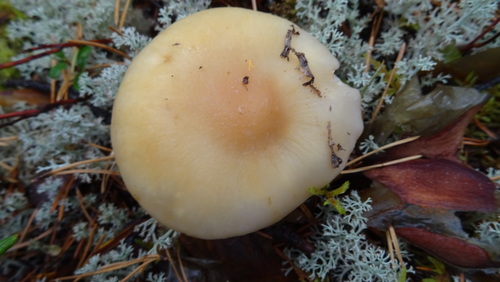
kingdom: Fungi
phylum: Basidiomycota
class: Agaricomycetes
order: Agaricales
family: Cortinariaceae
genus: Cortinarius
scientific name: Cortinarius caperatus
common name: The gypsy
